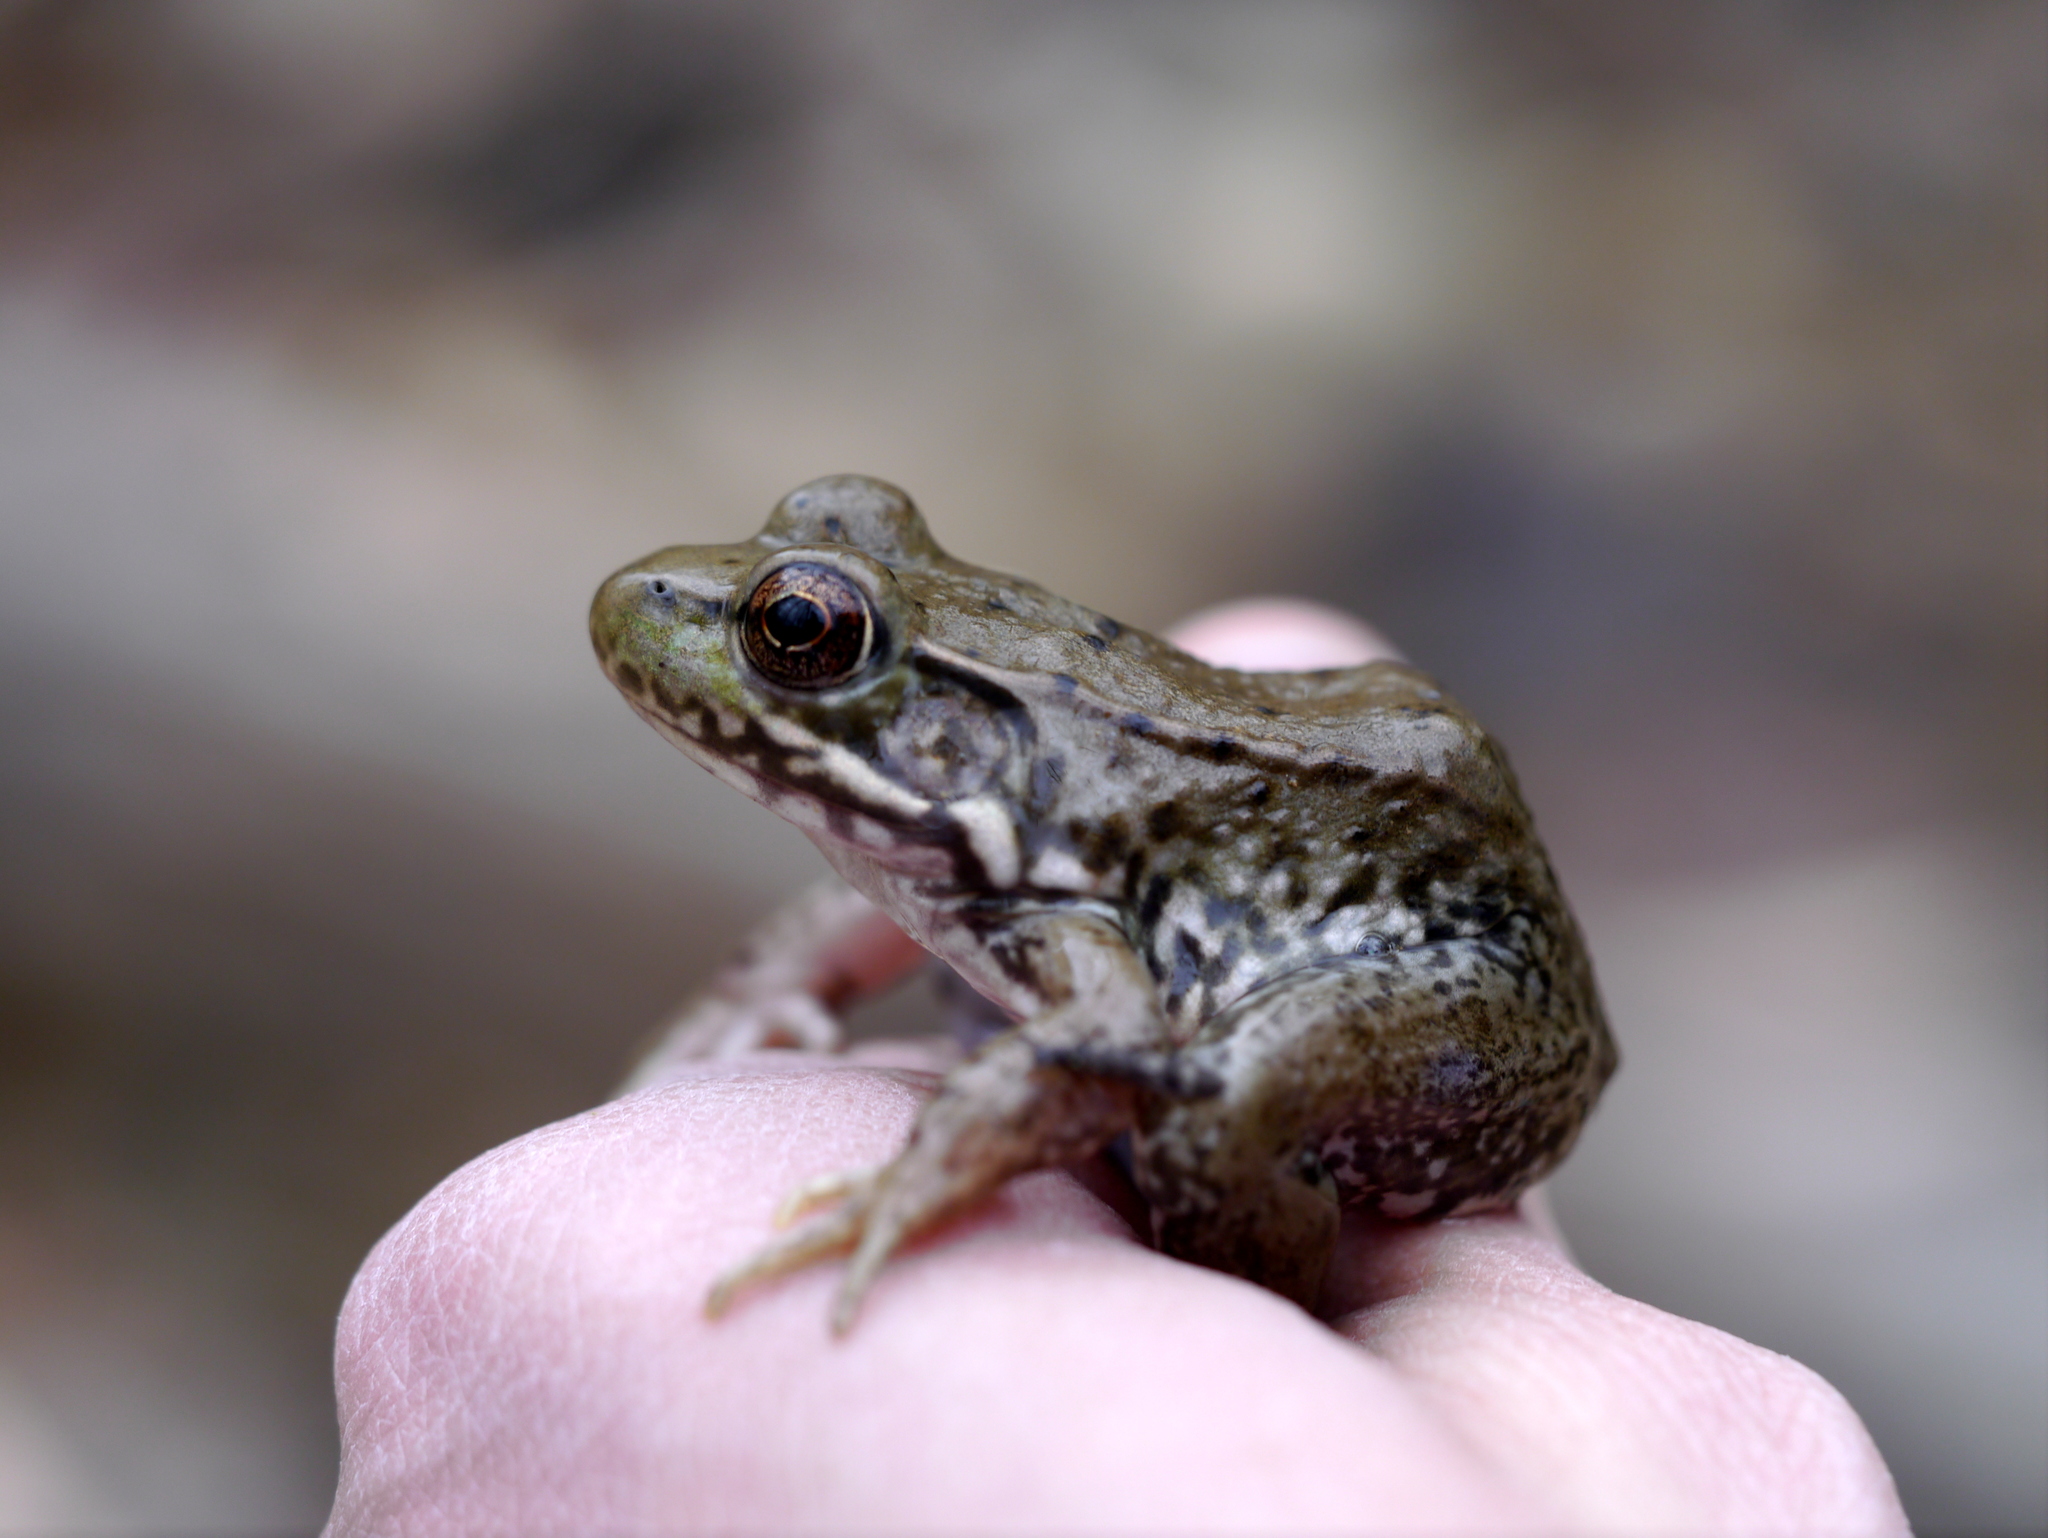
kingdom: Animalia
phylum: Chordata
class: Amphibia
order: Anura
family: Ranidae
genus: Lithobates
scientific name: Lithobates clamitans
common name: Green frog
